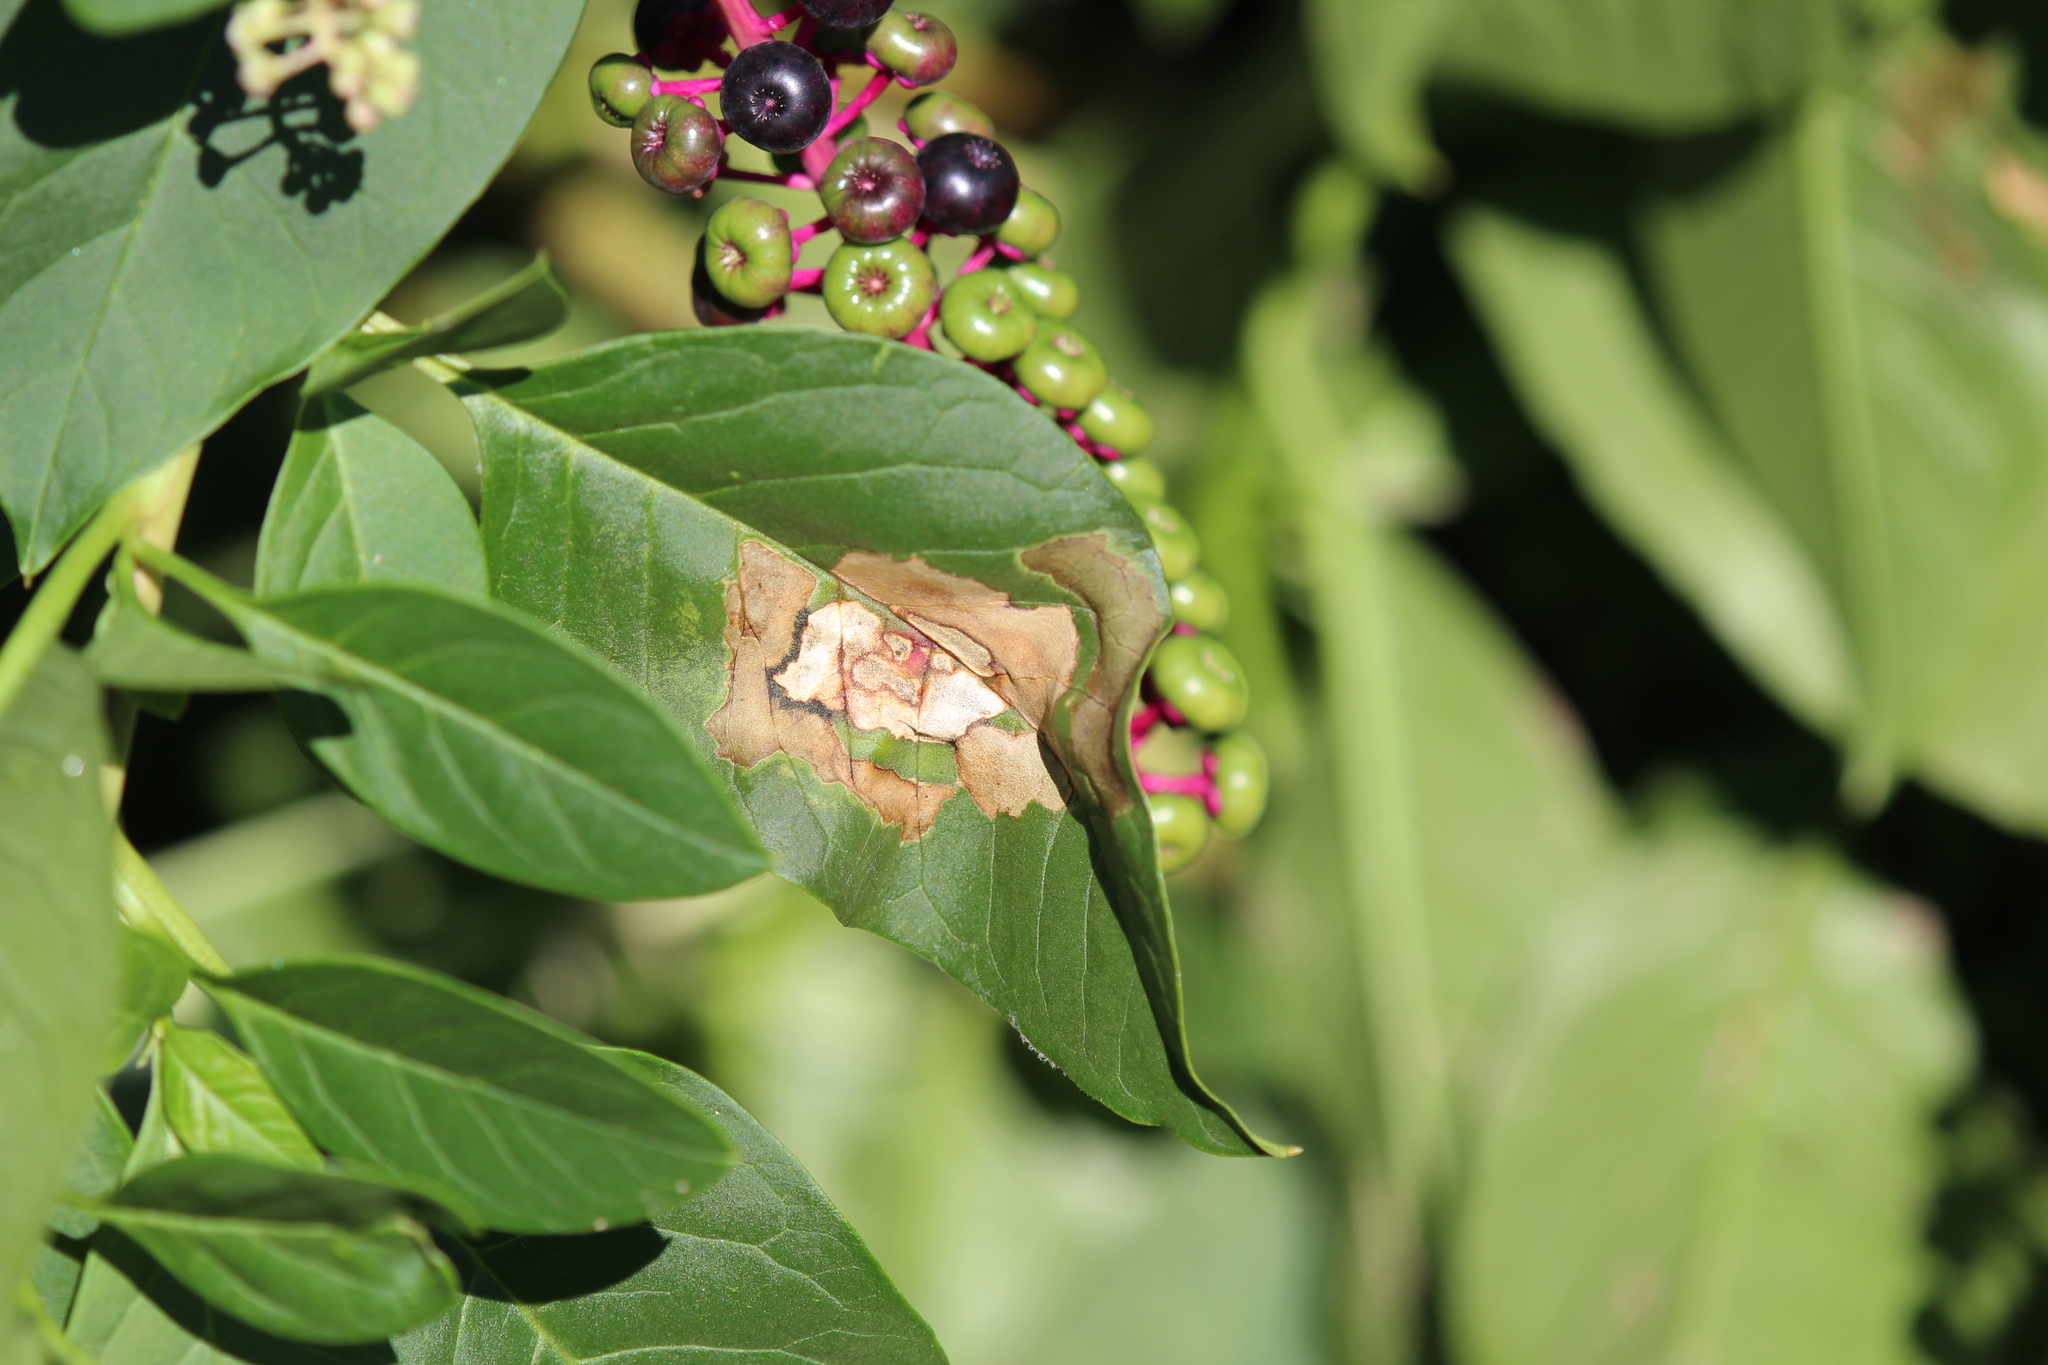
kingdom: Plantae
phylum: Tracheophyta
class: Magnoliopsida
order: Caryophyllales
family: Phytolaccaceae
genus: Phytolacca
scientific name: Phytolacca americana
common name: American pokeweed
